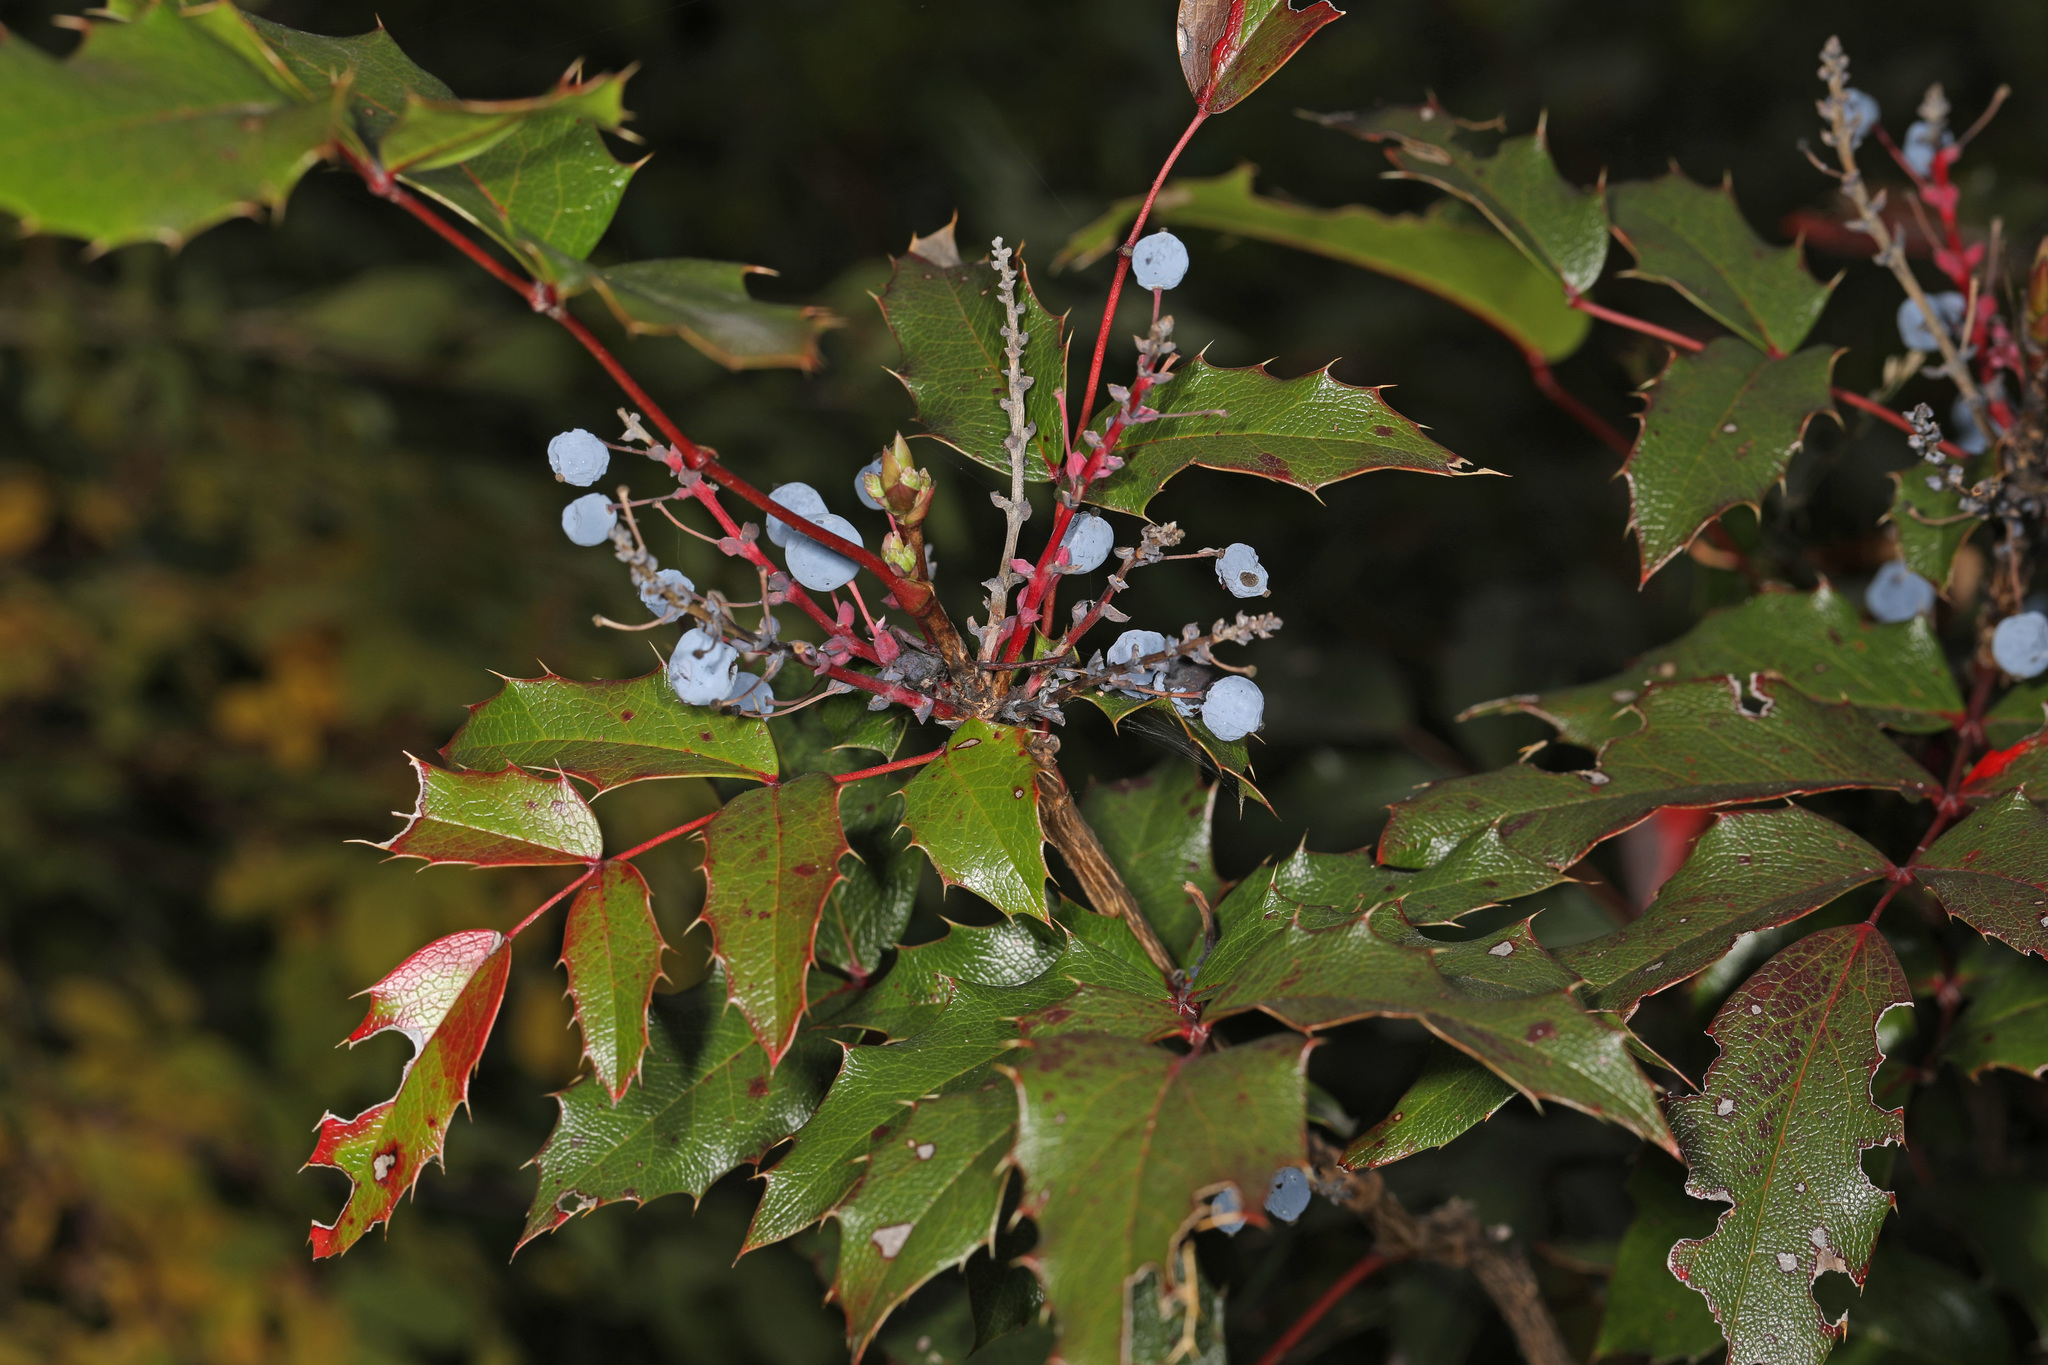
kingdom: Plantae
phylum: Tracheophyta
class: Magnoliopsida
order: Ranunculales
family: Berberidaceae
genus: Mahonia
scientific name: Mahonia aquifolium
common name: Oregon-grape
